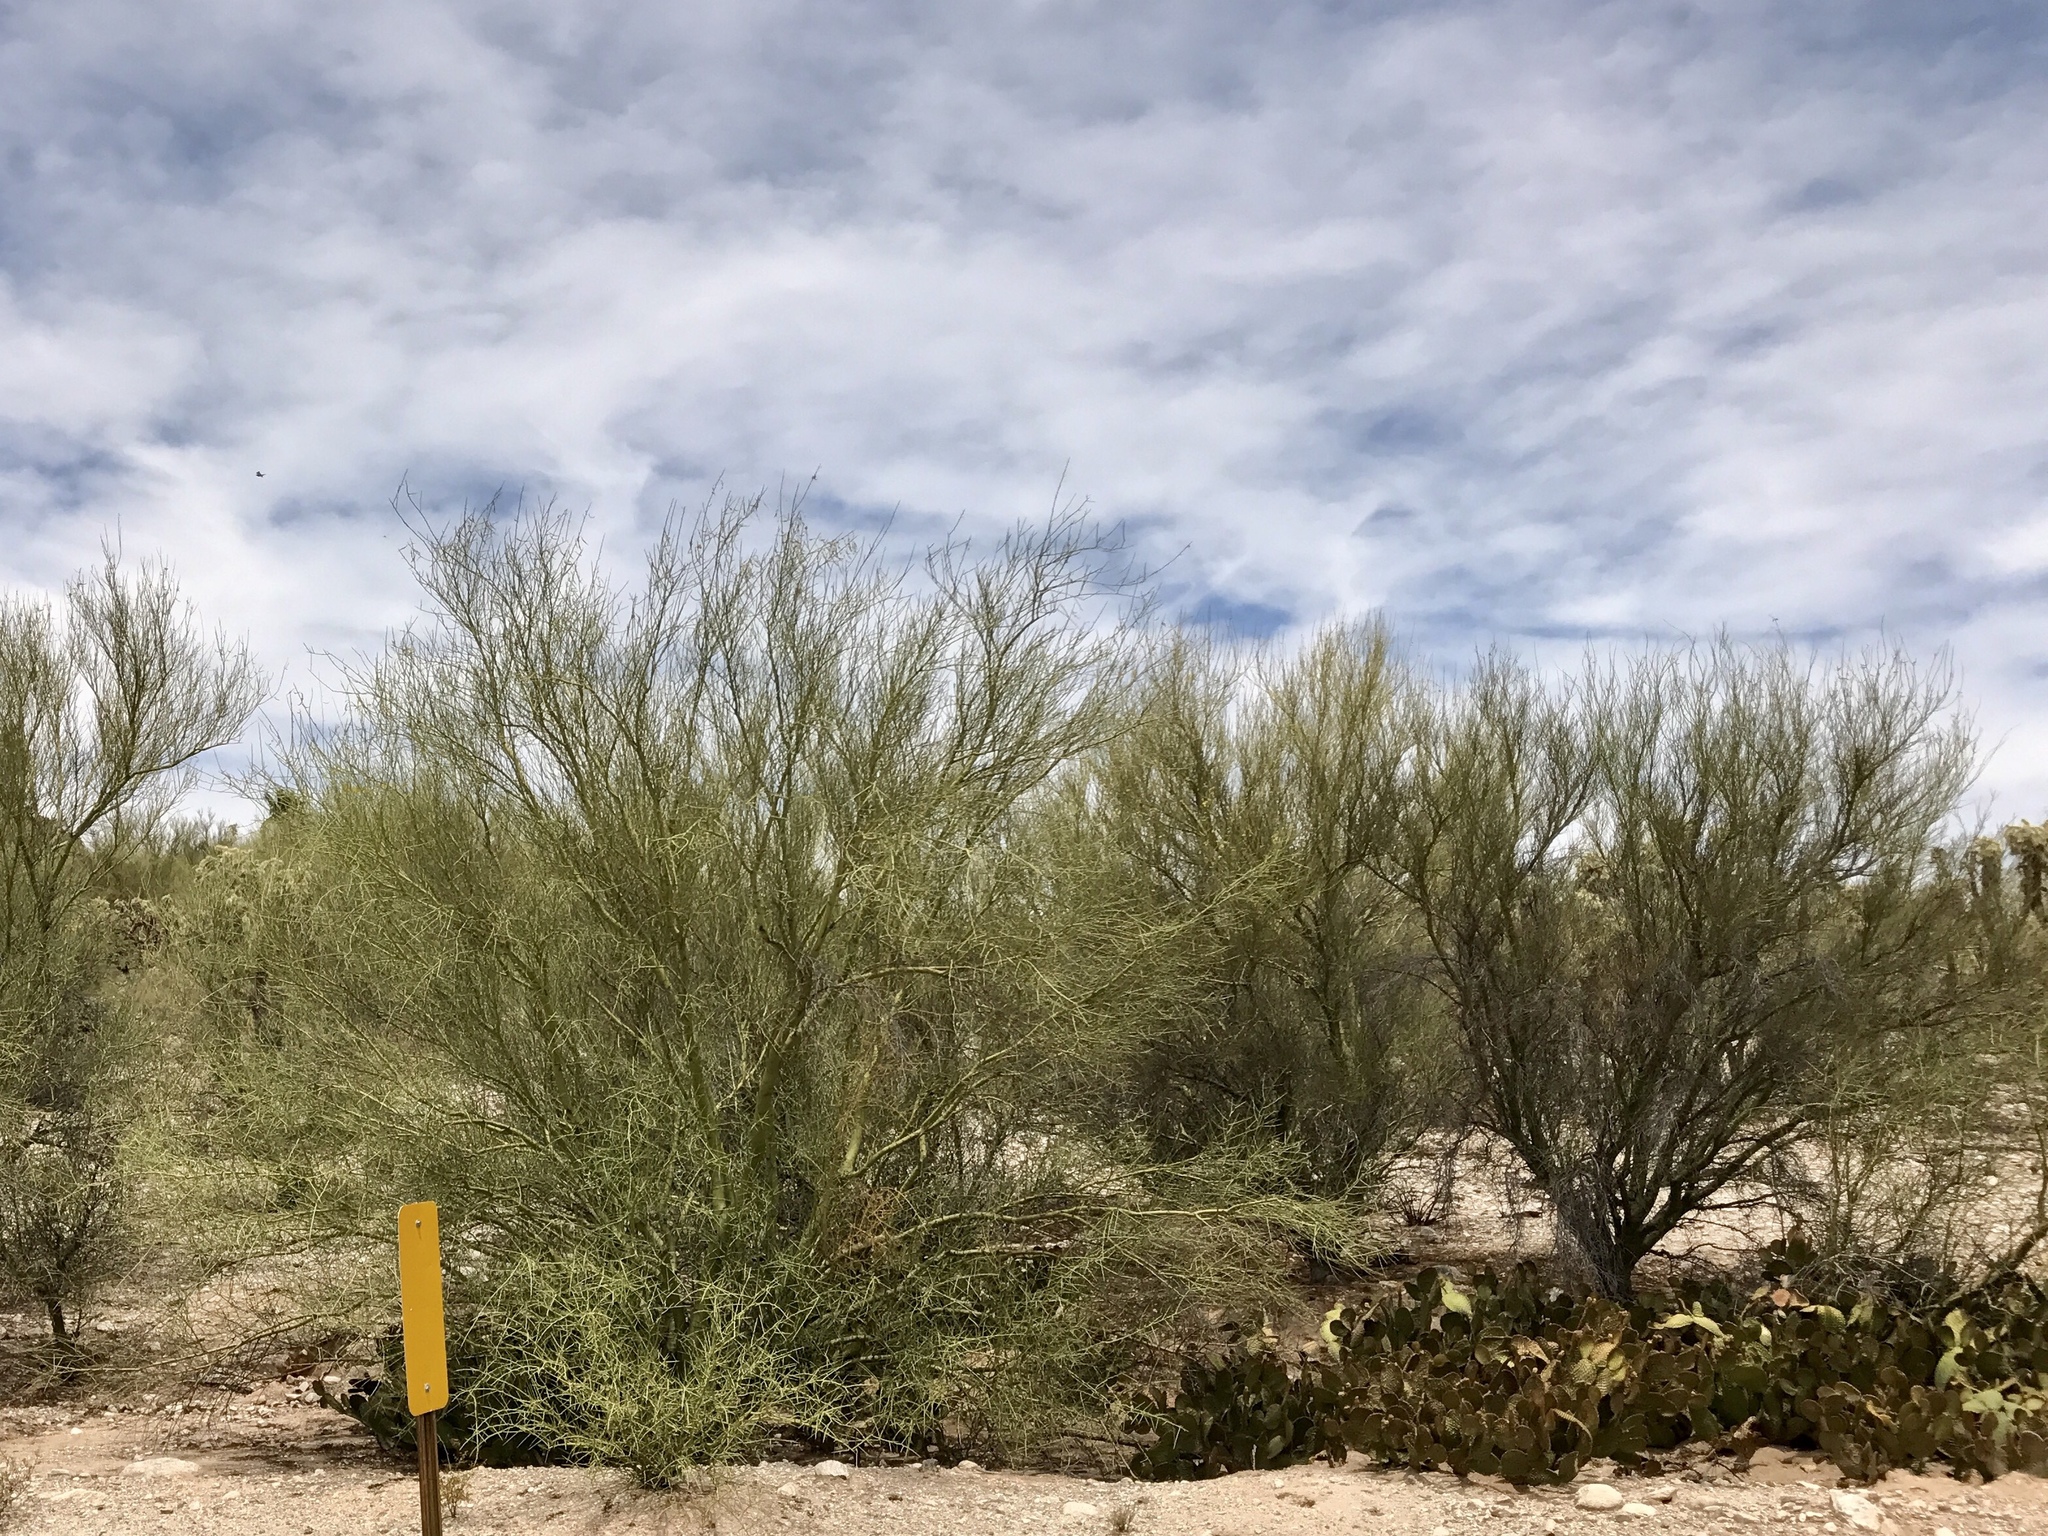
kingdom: Plantae
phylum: Tracheophyta
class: Magnoliopsida
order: Fabales
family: Fabaceae
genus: Parkinsonia
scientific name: Parkinsonia florida
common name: Blue paloverde
